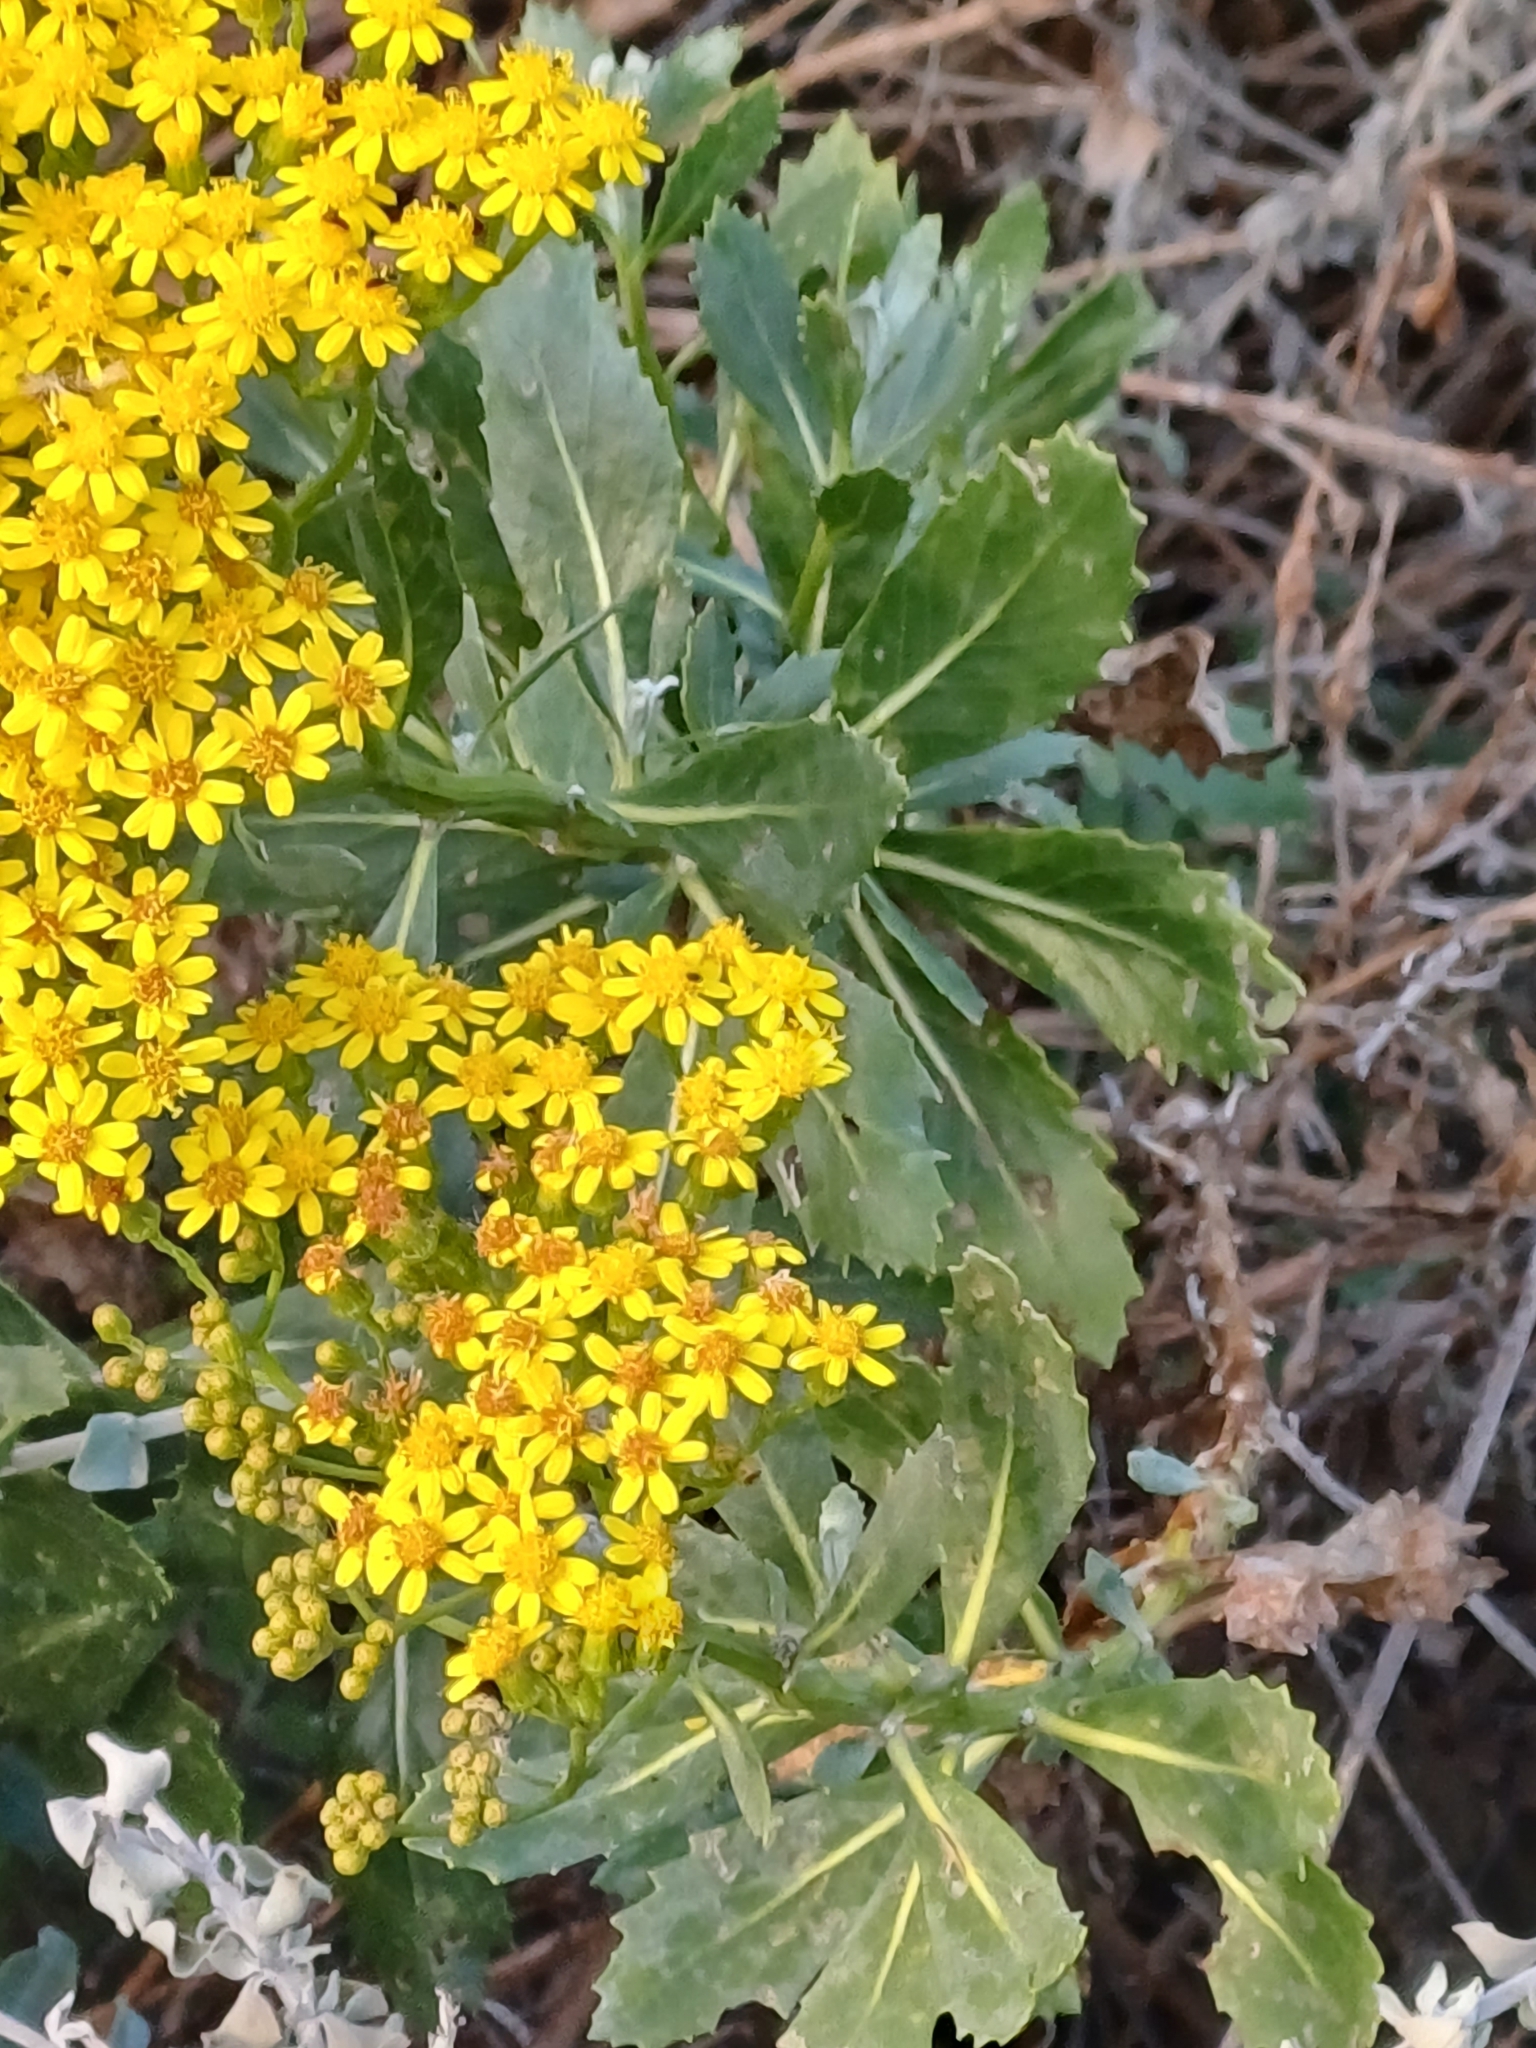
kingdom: Plantae
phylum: Tracheophyta
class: Magnoliopsida
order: Asterales
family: Asteraceae
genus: Senecio
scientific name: Senecio halimifolius
